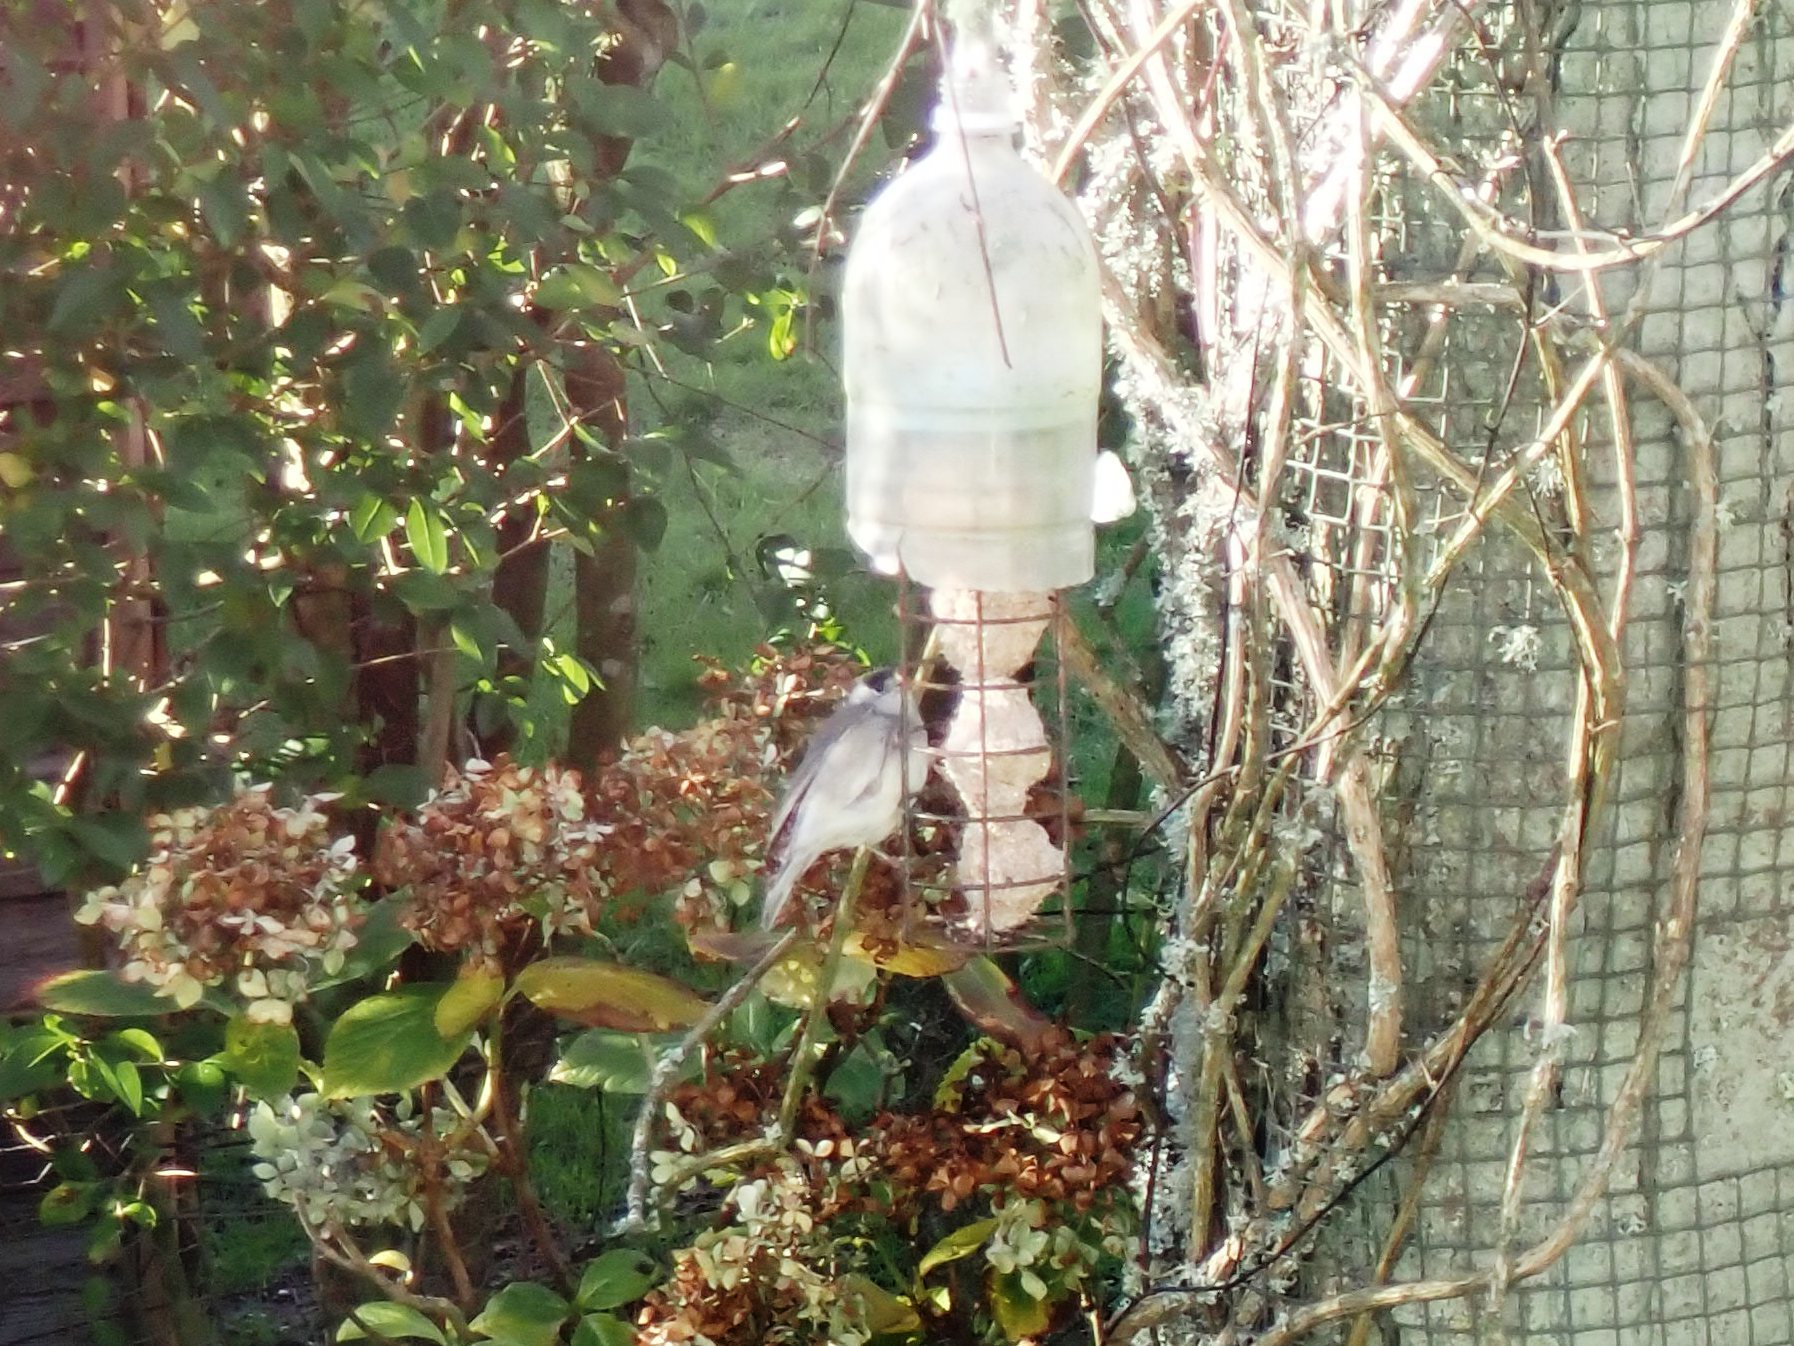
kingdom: Animalia
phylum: Chordata
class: Aves
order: Passeriformes
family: Sylviidae
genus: Sylvia
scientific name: Sylvia atricapilla
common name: Eurasian blackcap
